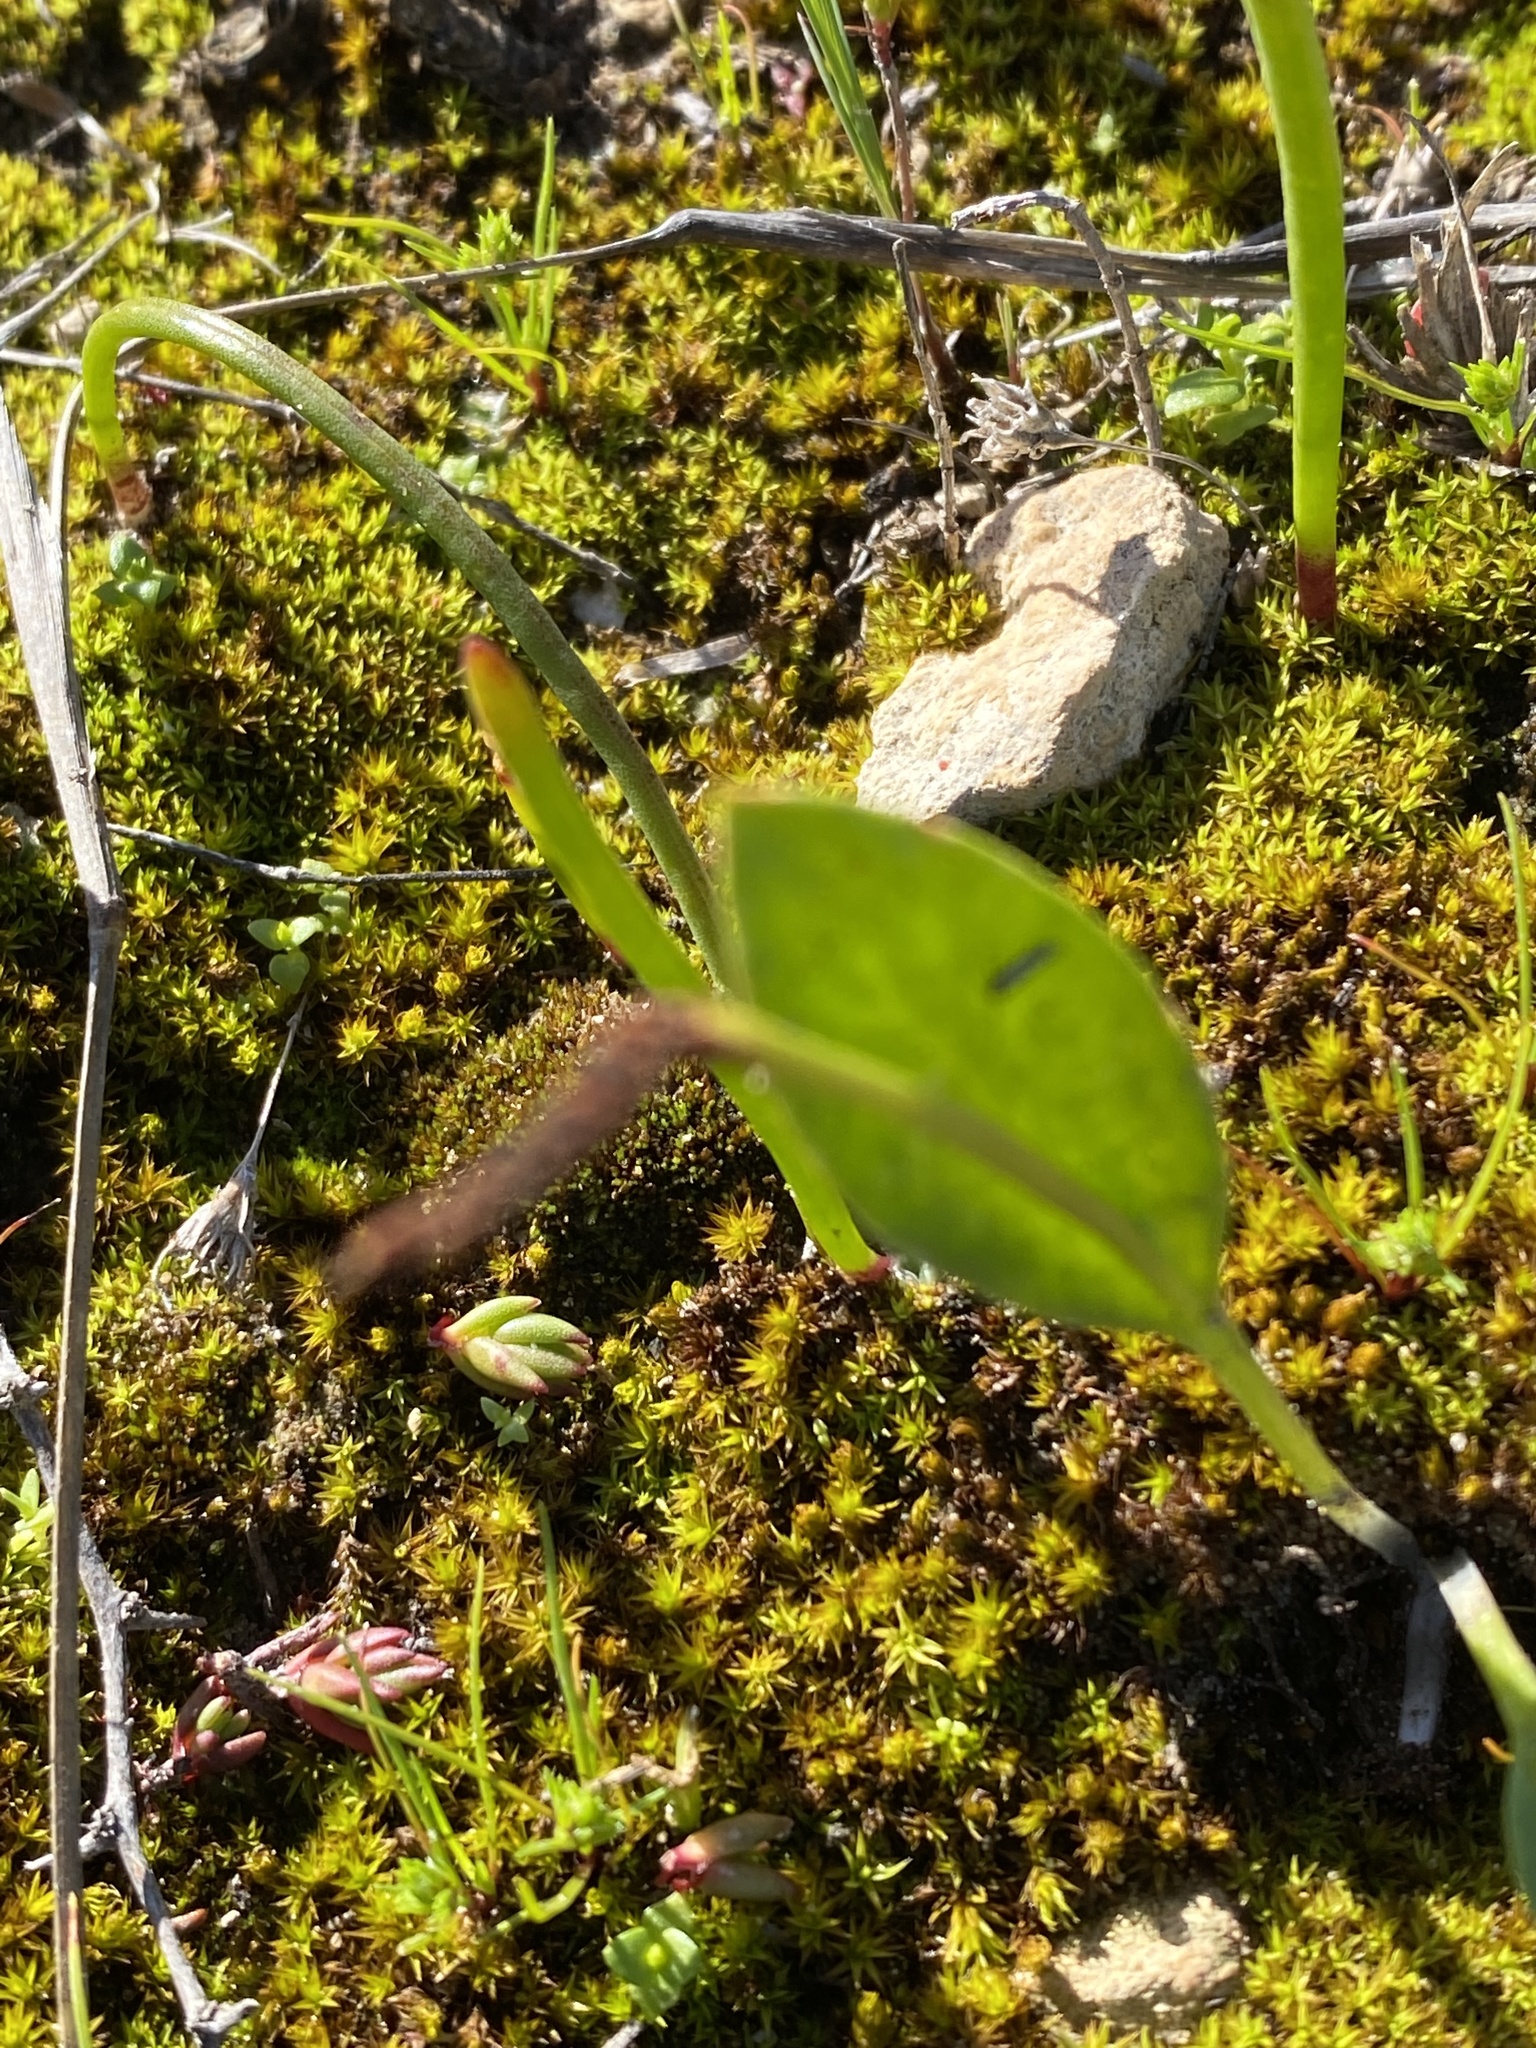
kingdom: Plantae
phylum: Tracheophyta
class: Polypodiopsida
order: Ophioglossales
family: Ophioglossaceae
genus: Ophioglossum
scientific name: Ophioglossum nudicaule
